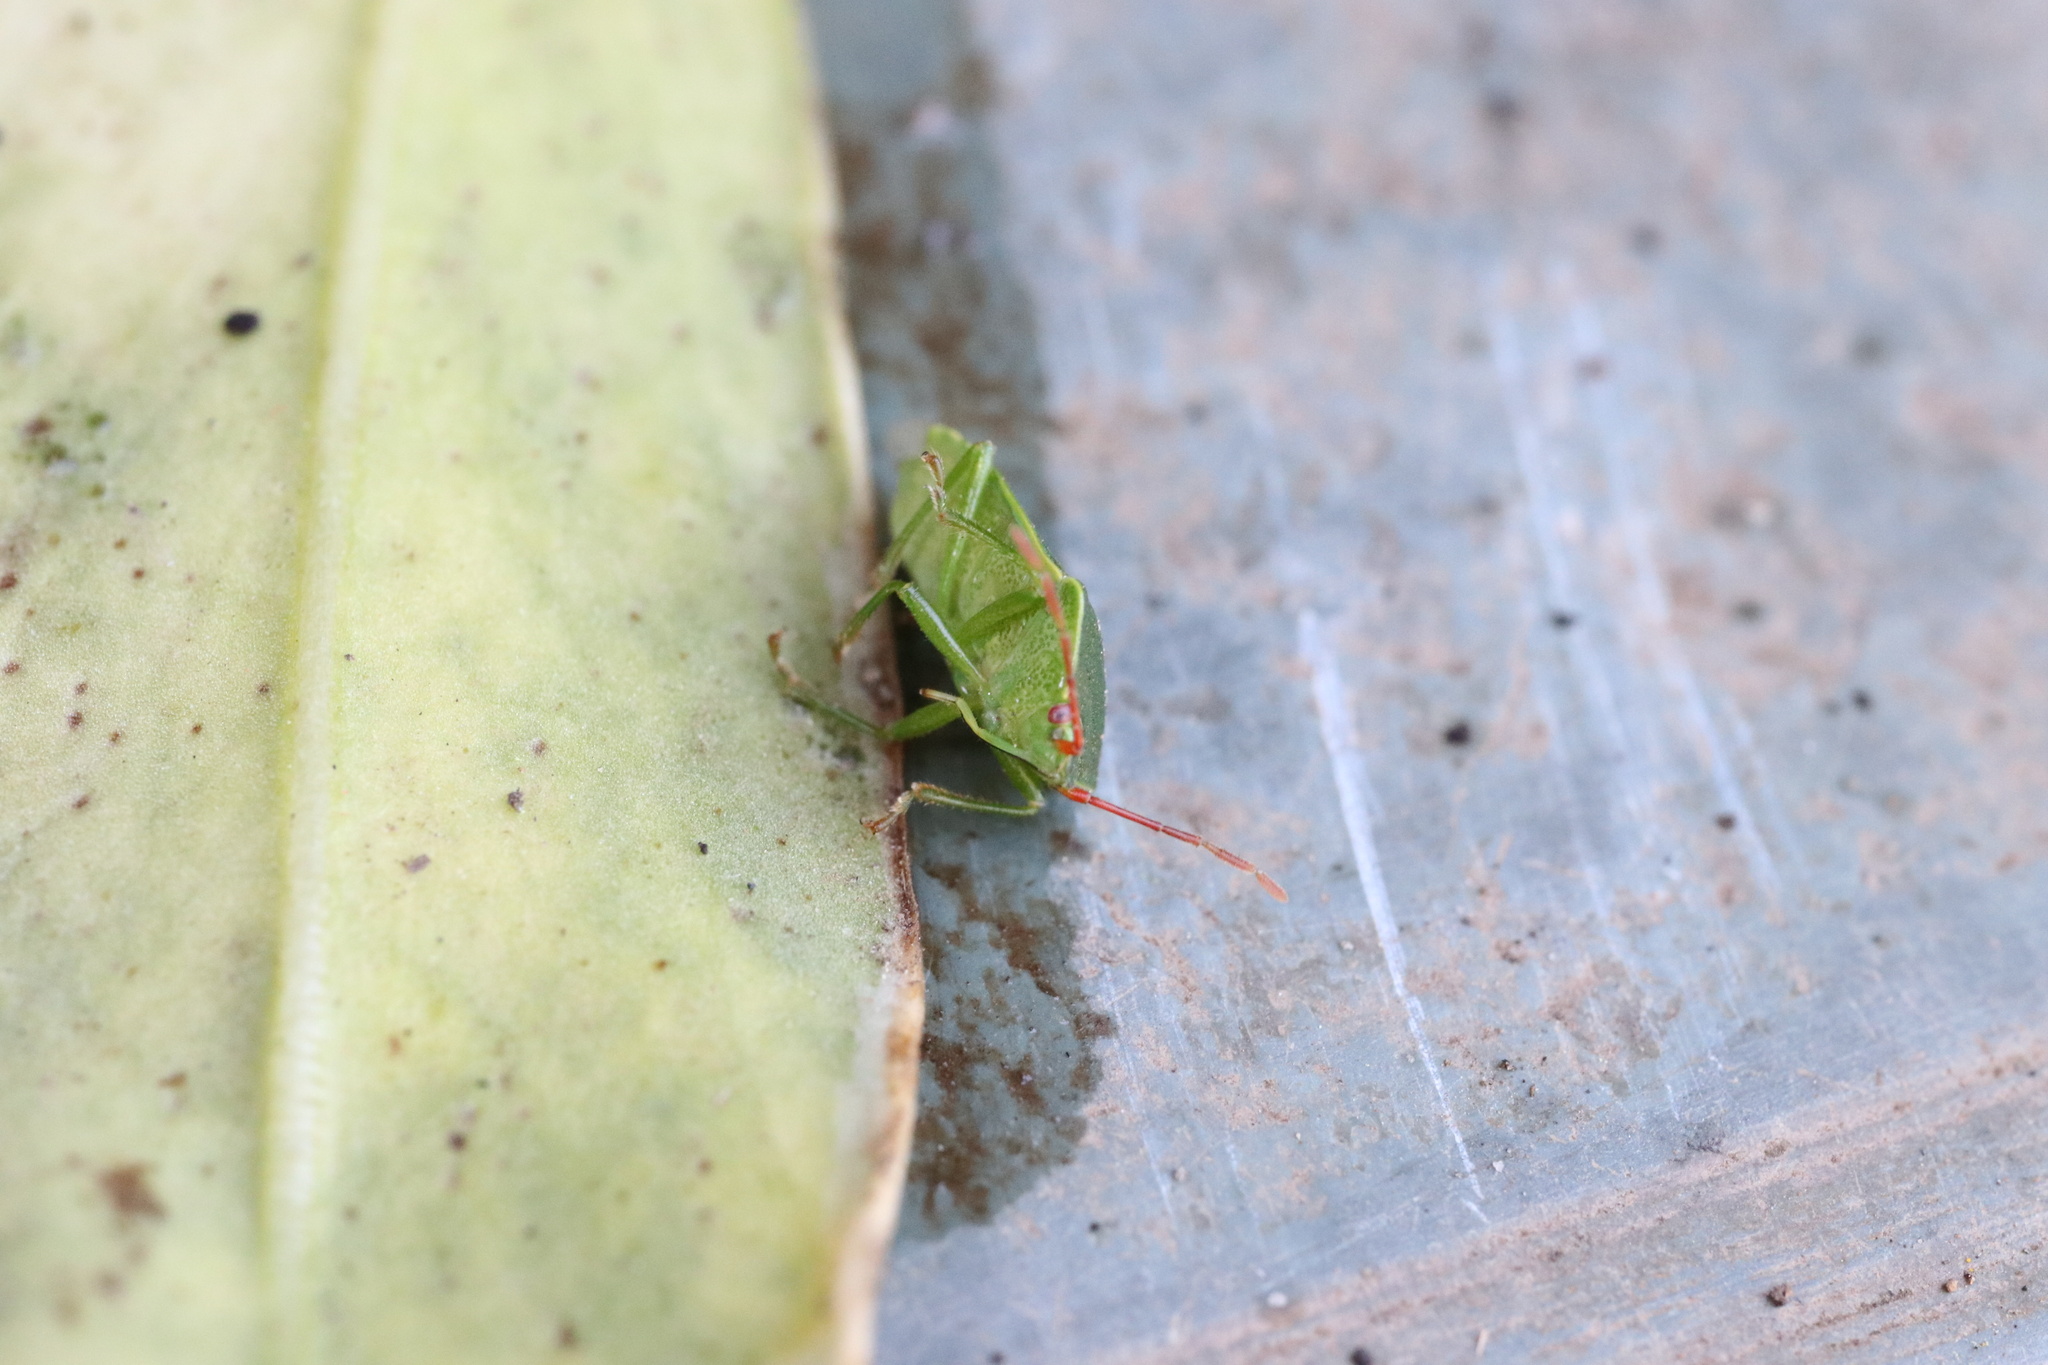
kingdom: Animalia
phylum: Arthropoda
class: Insecta
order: Hemiptera
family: Acanthosomatidae
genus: Sinopla
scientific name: Sinopla perpunctatus
